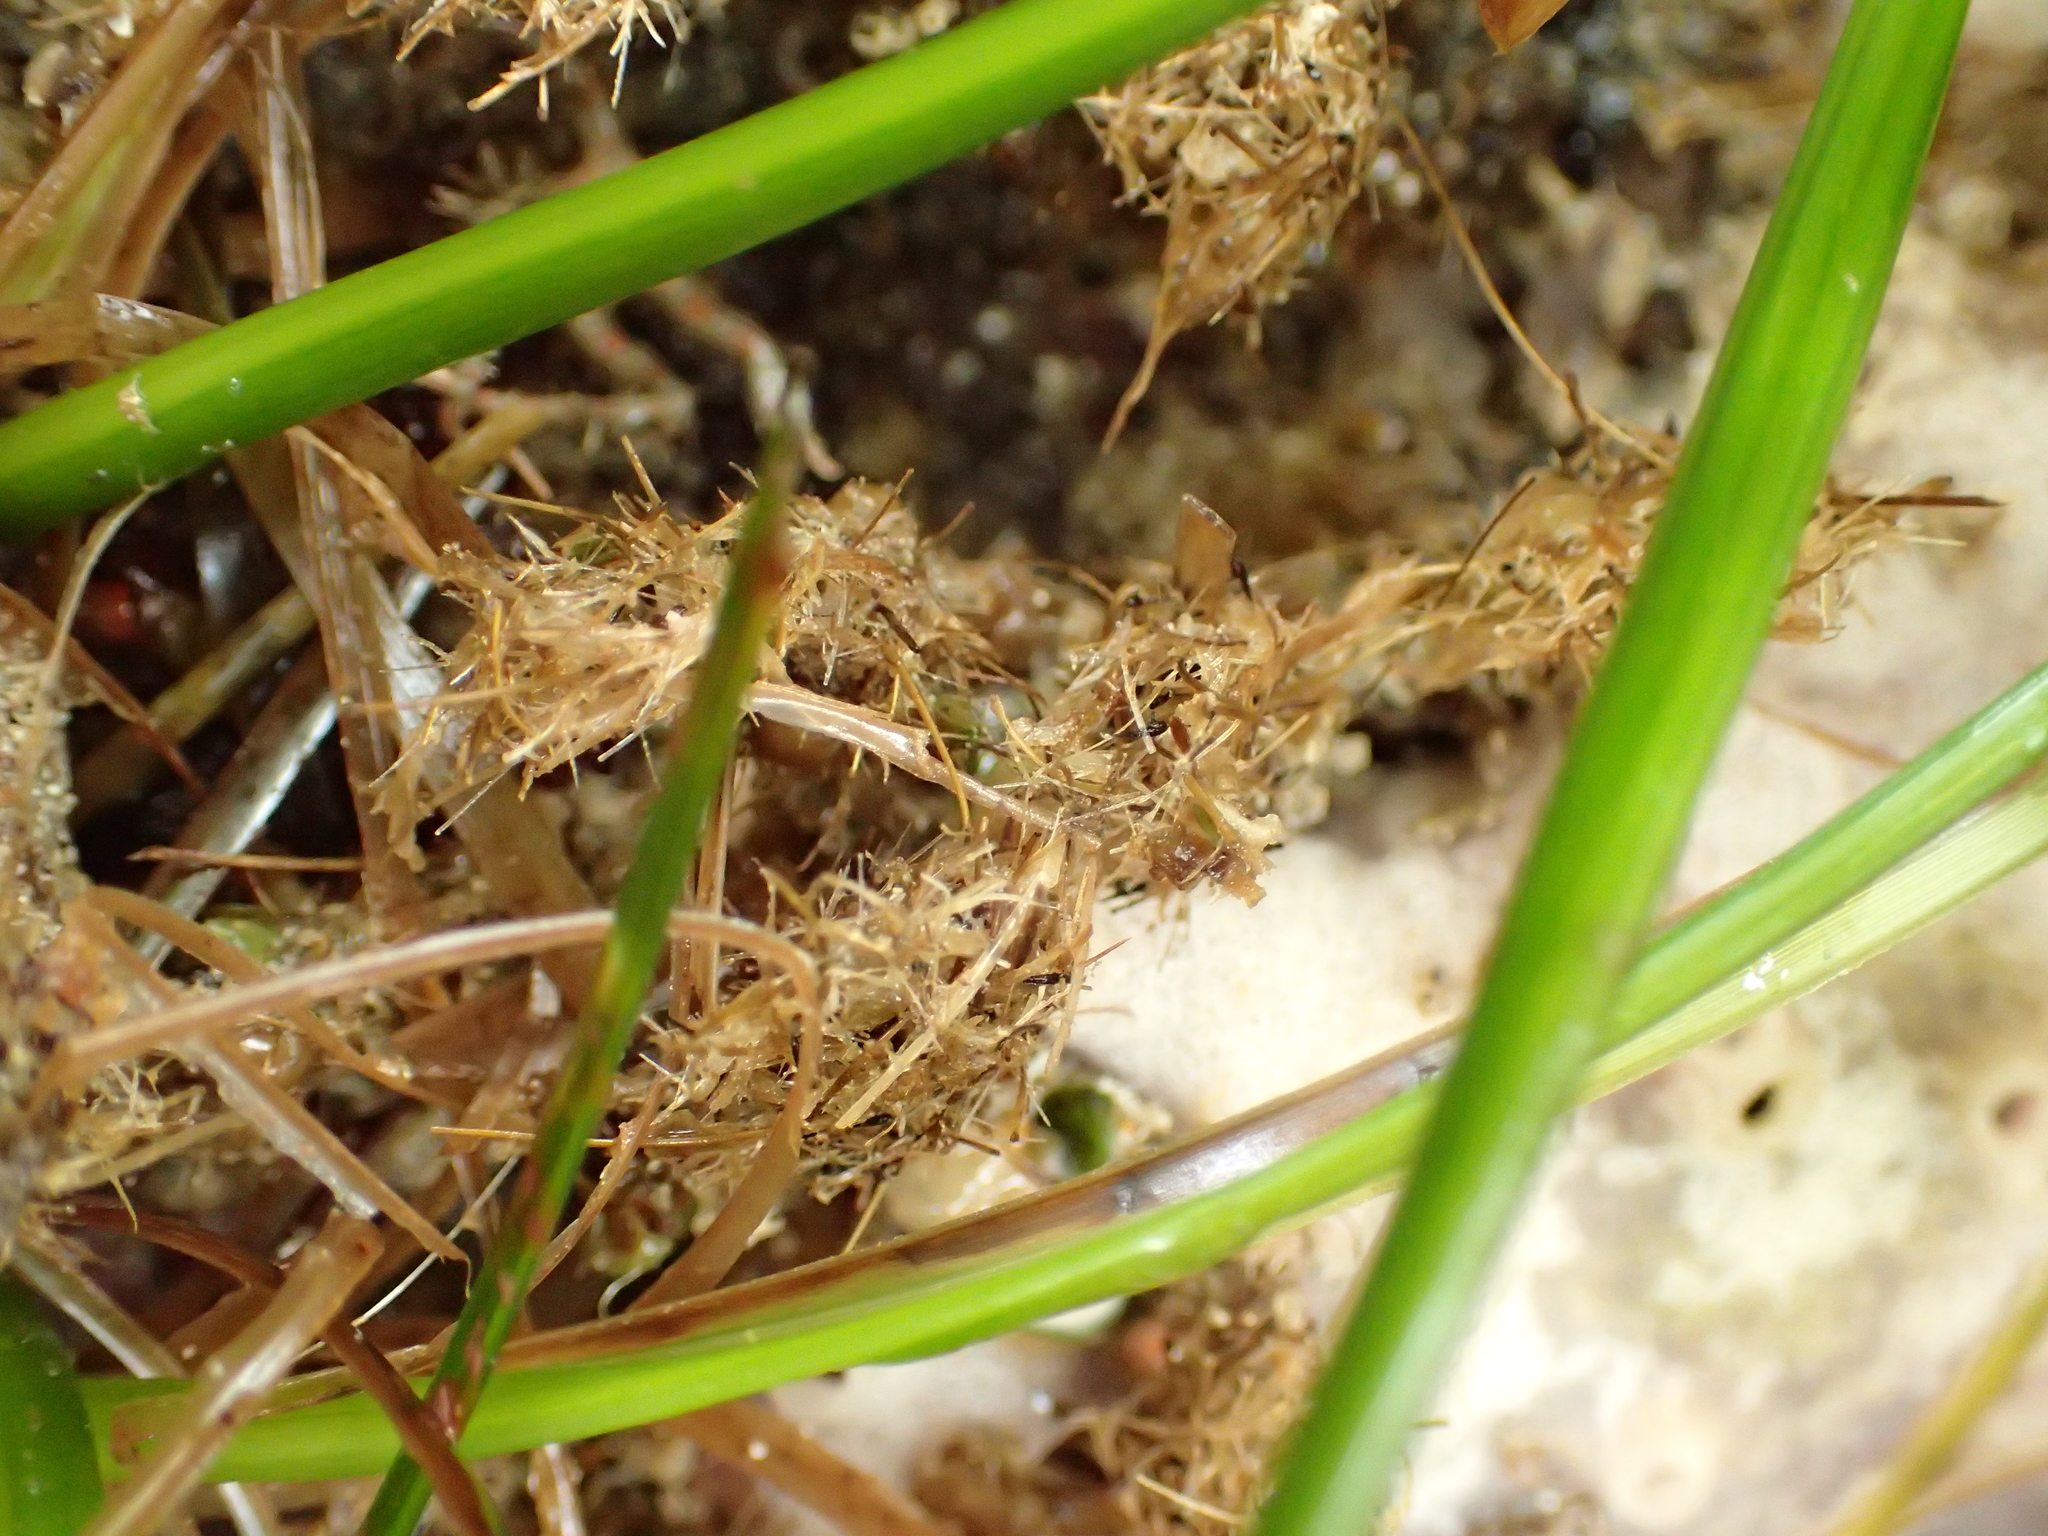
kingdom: Animalia
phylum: Annelida
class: Polychaeta
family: Terebellidae
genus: Pista
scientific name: Pista elongata
